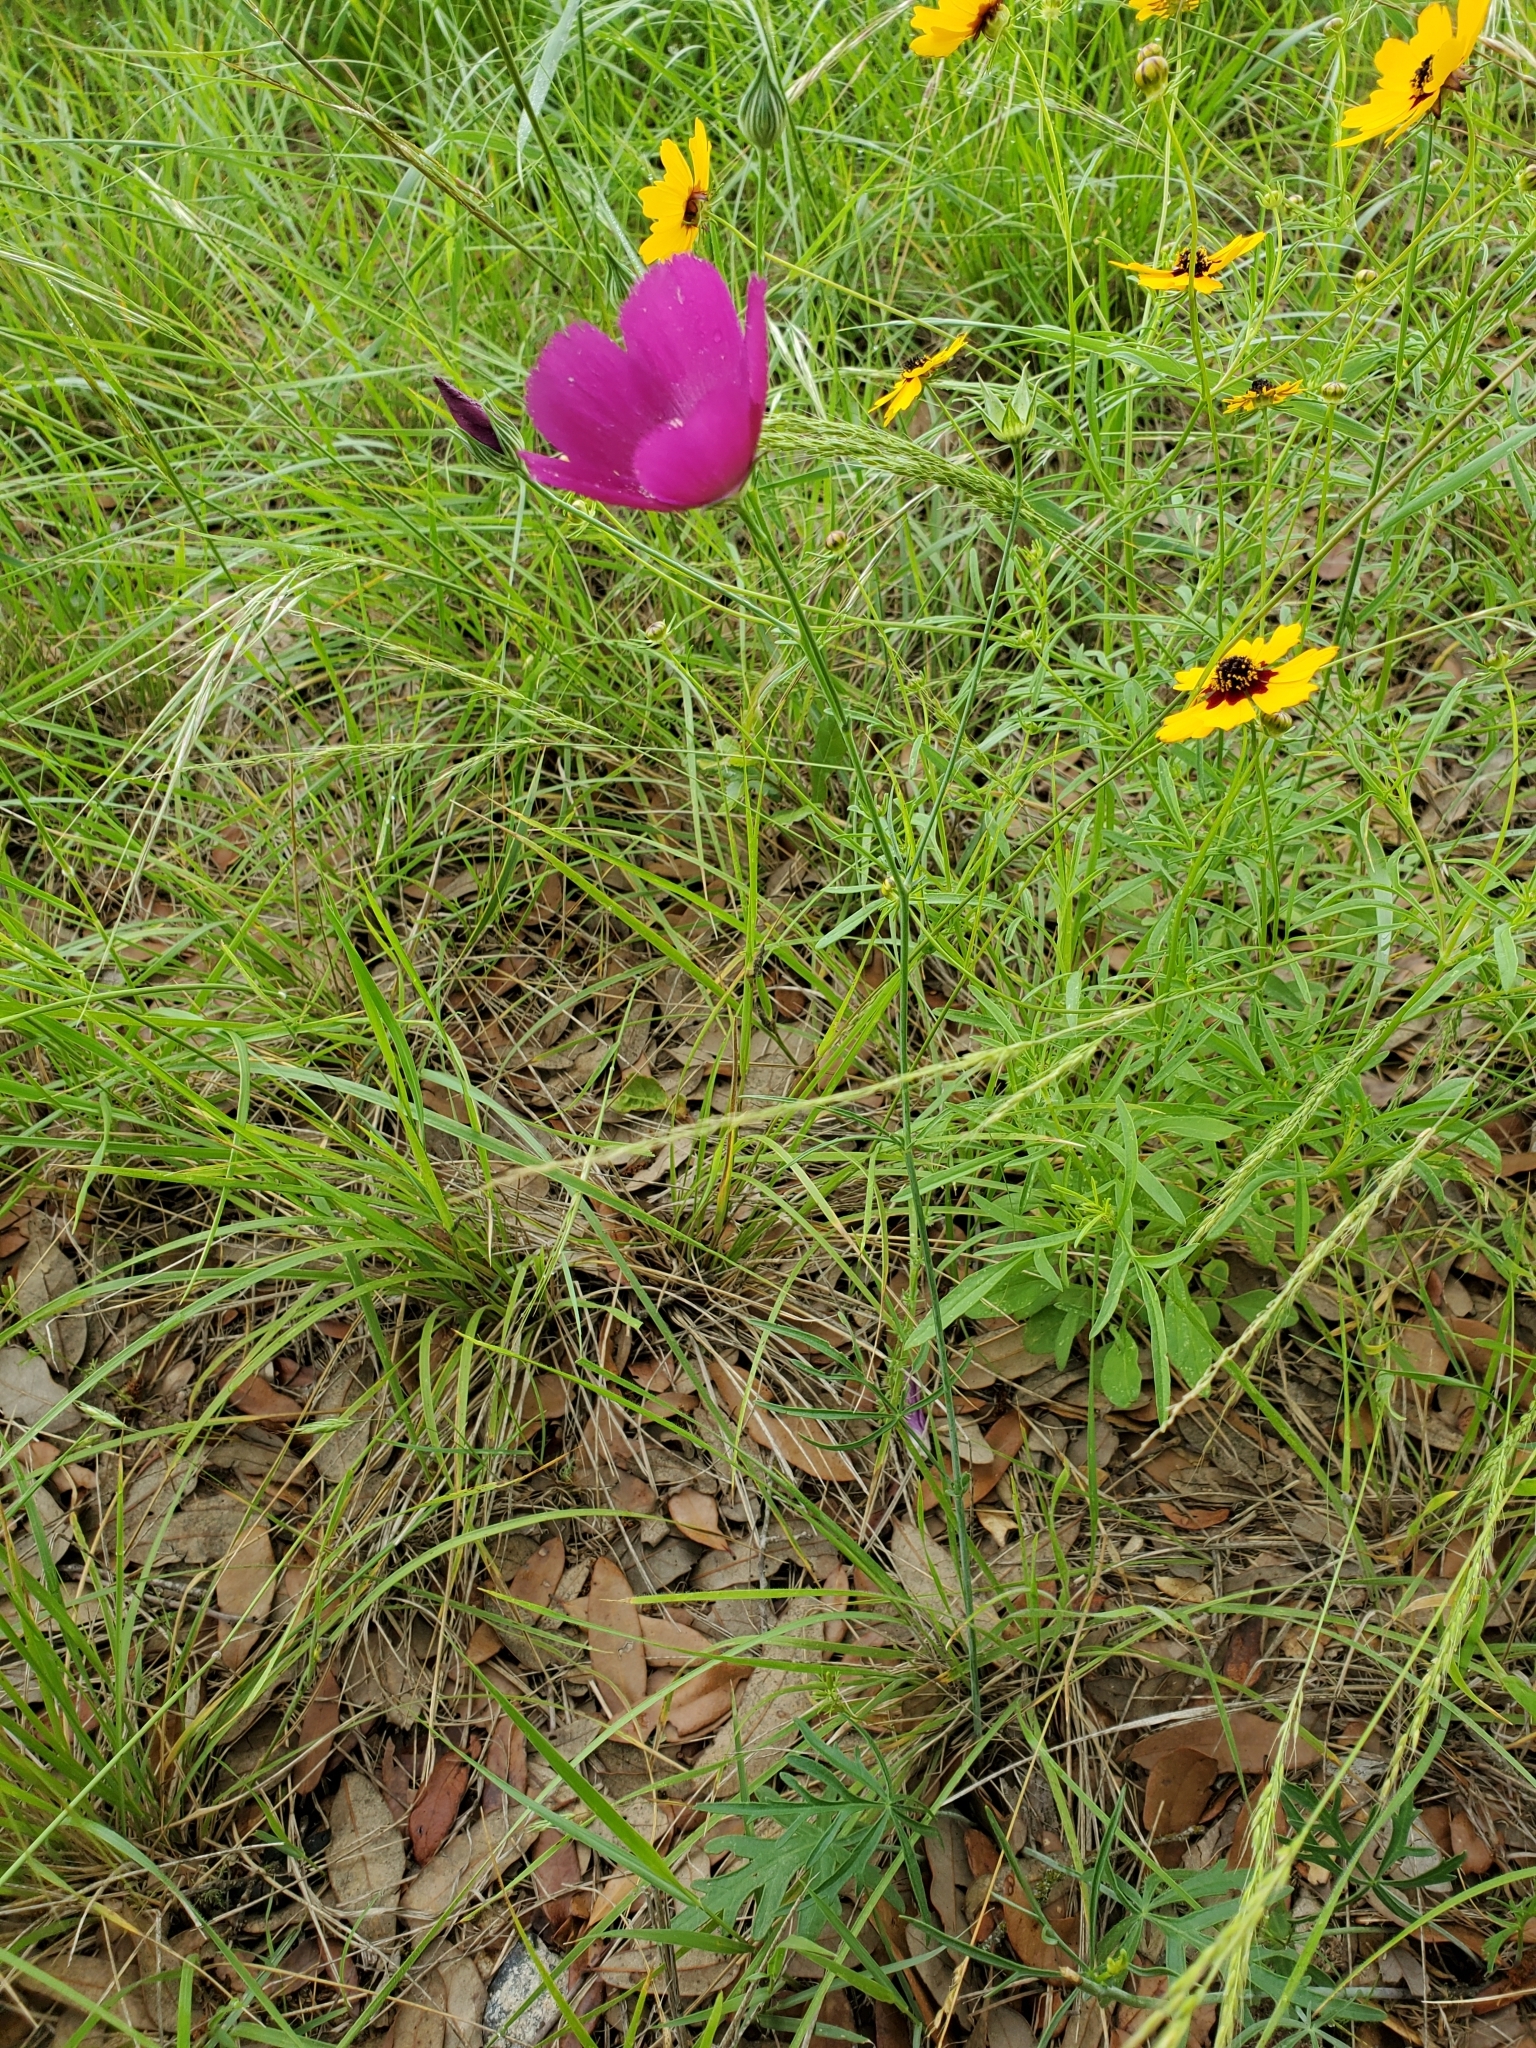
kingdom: Plantae
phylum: Tracheophyta
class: Magnoliopsida
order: Malvales
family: Malvaceae
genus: Callirhoe
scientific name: Callirhoe pedata
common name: Finger poppy-mallow
